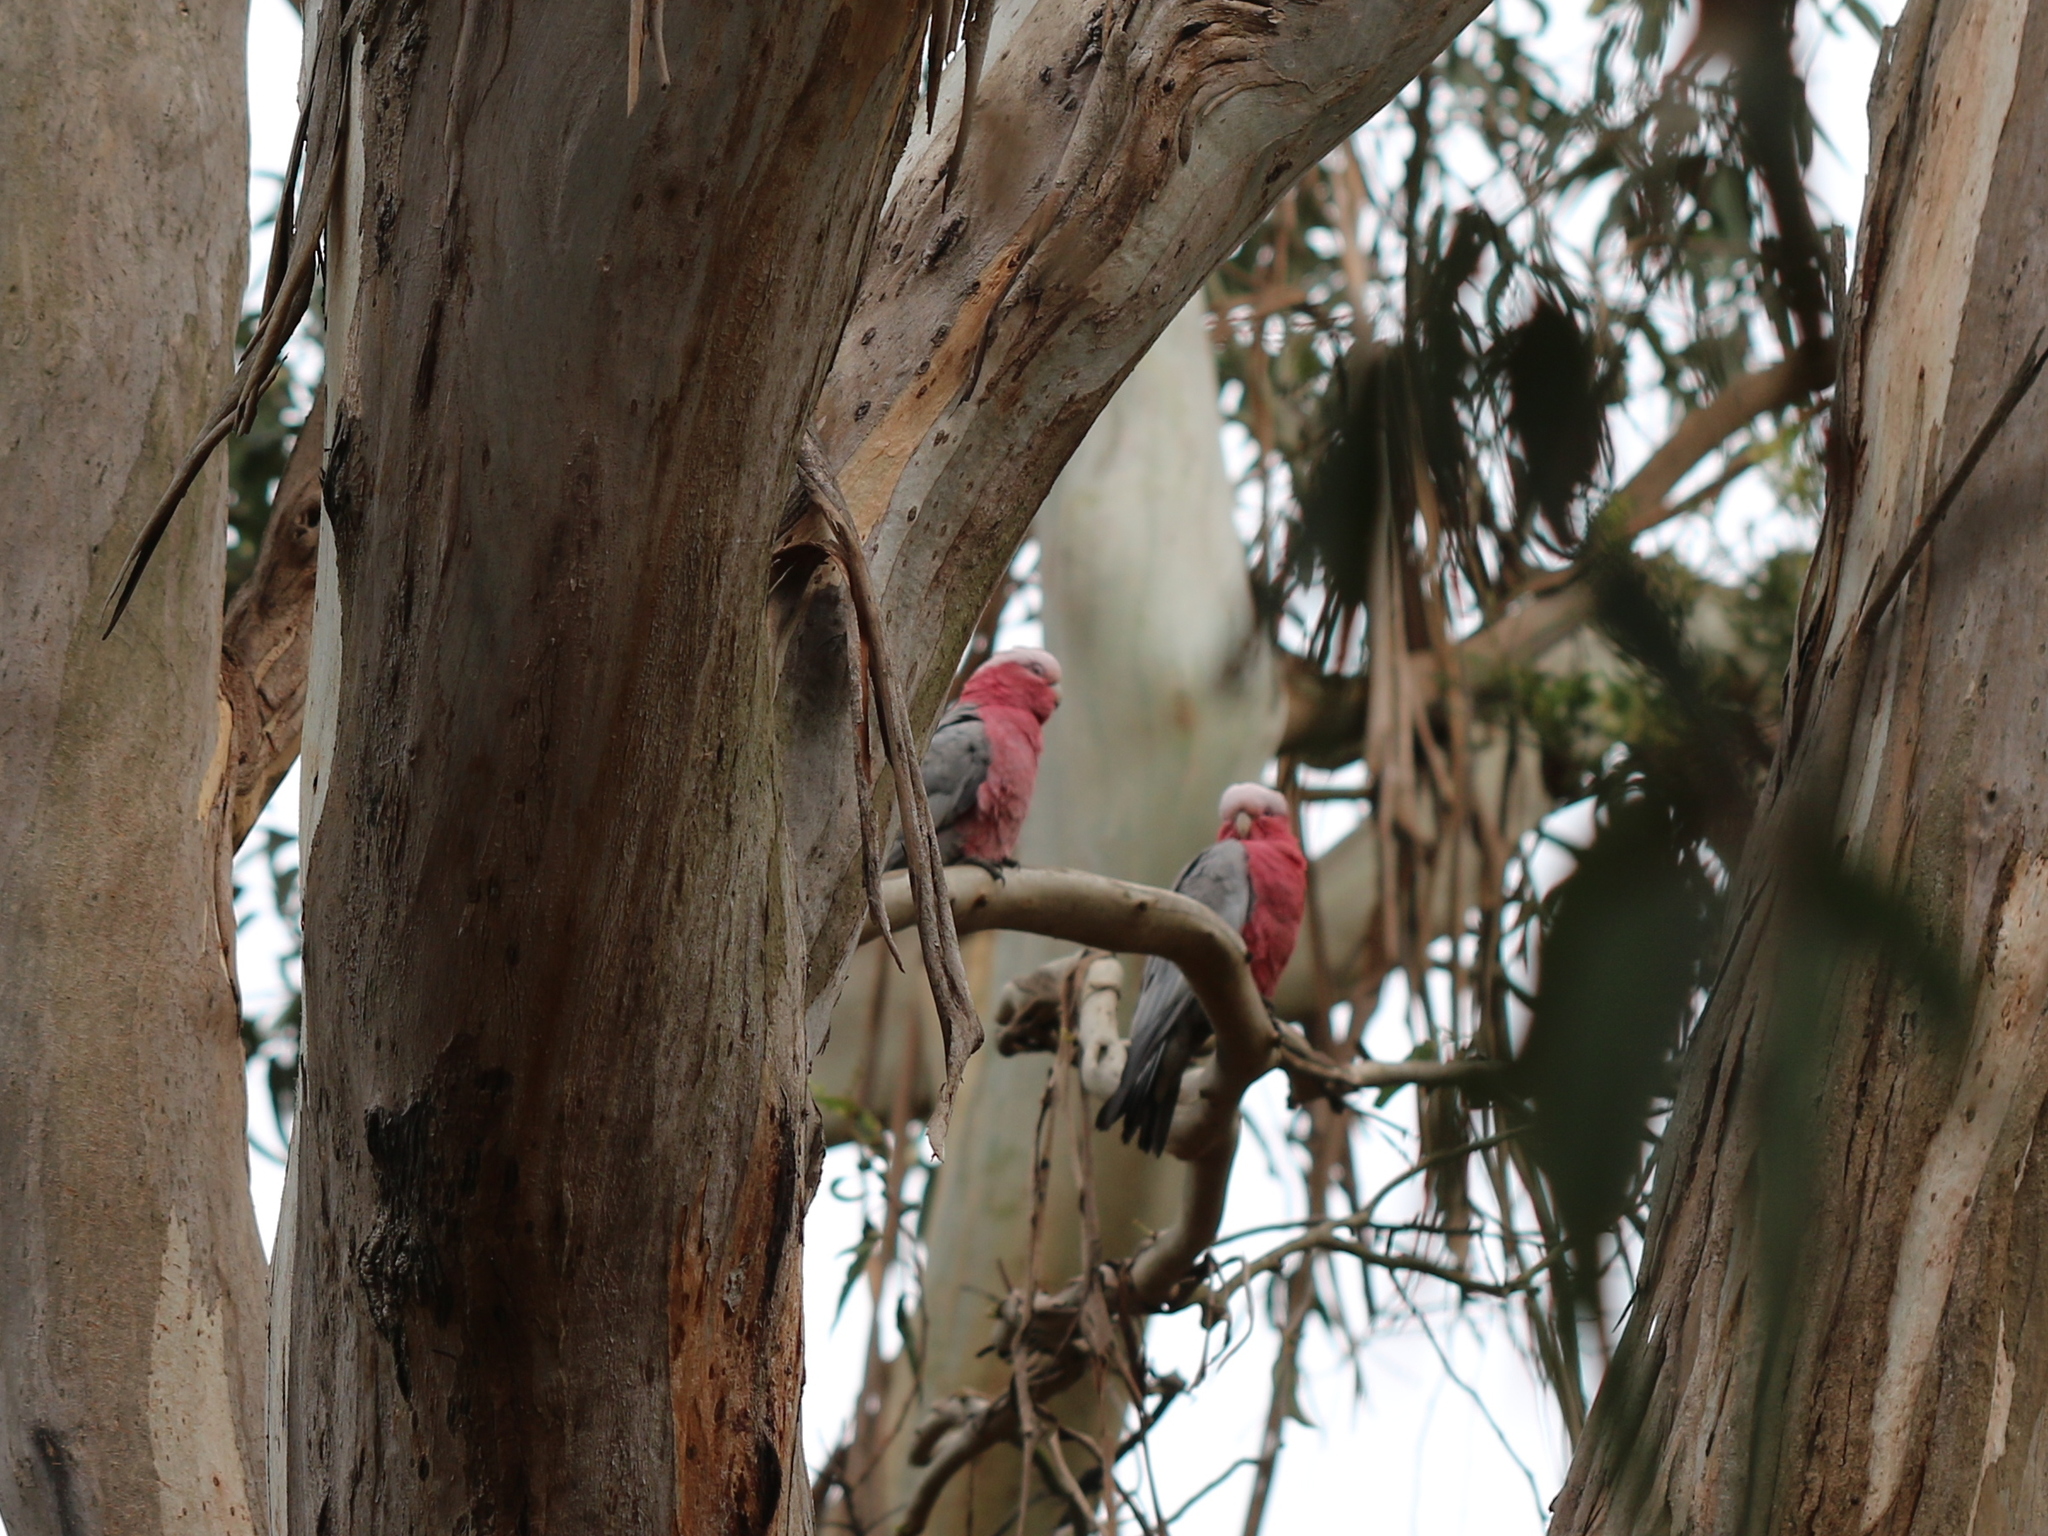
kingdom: Animalia
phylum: Chordata
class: Aves
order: Psittaciformes
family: Psittacidae
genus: Eolophus
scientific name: Eolophus roseicapilla
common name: Galah
